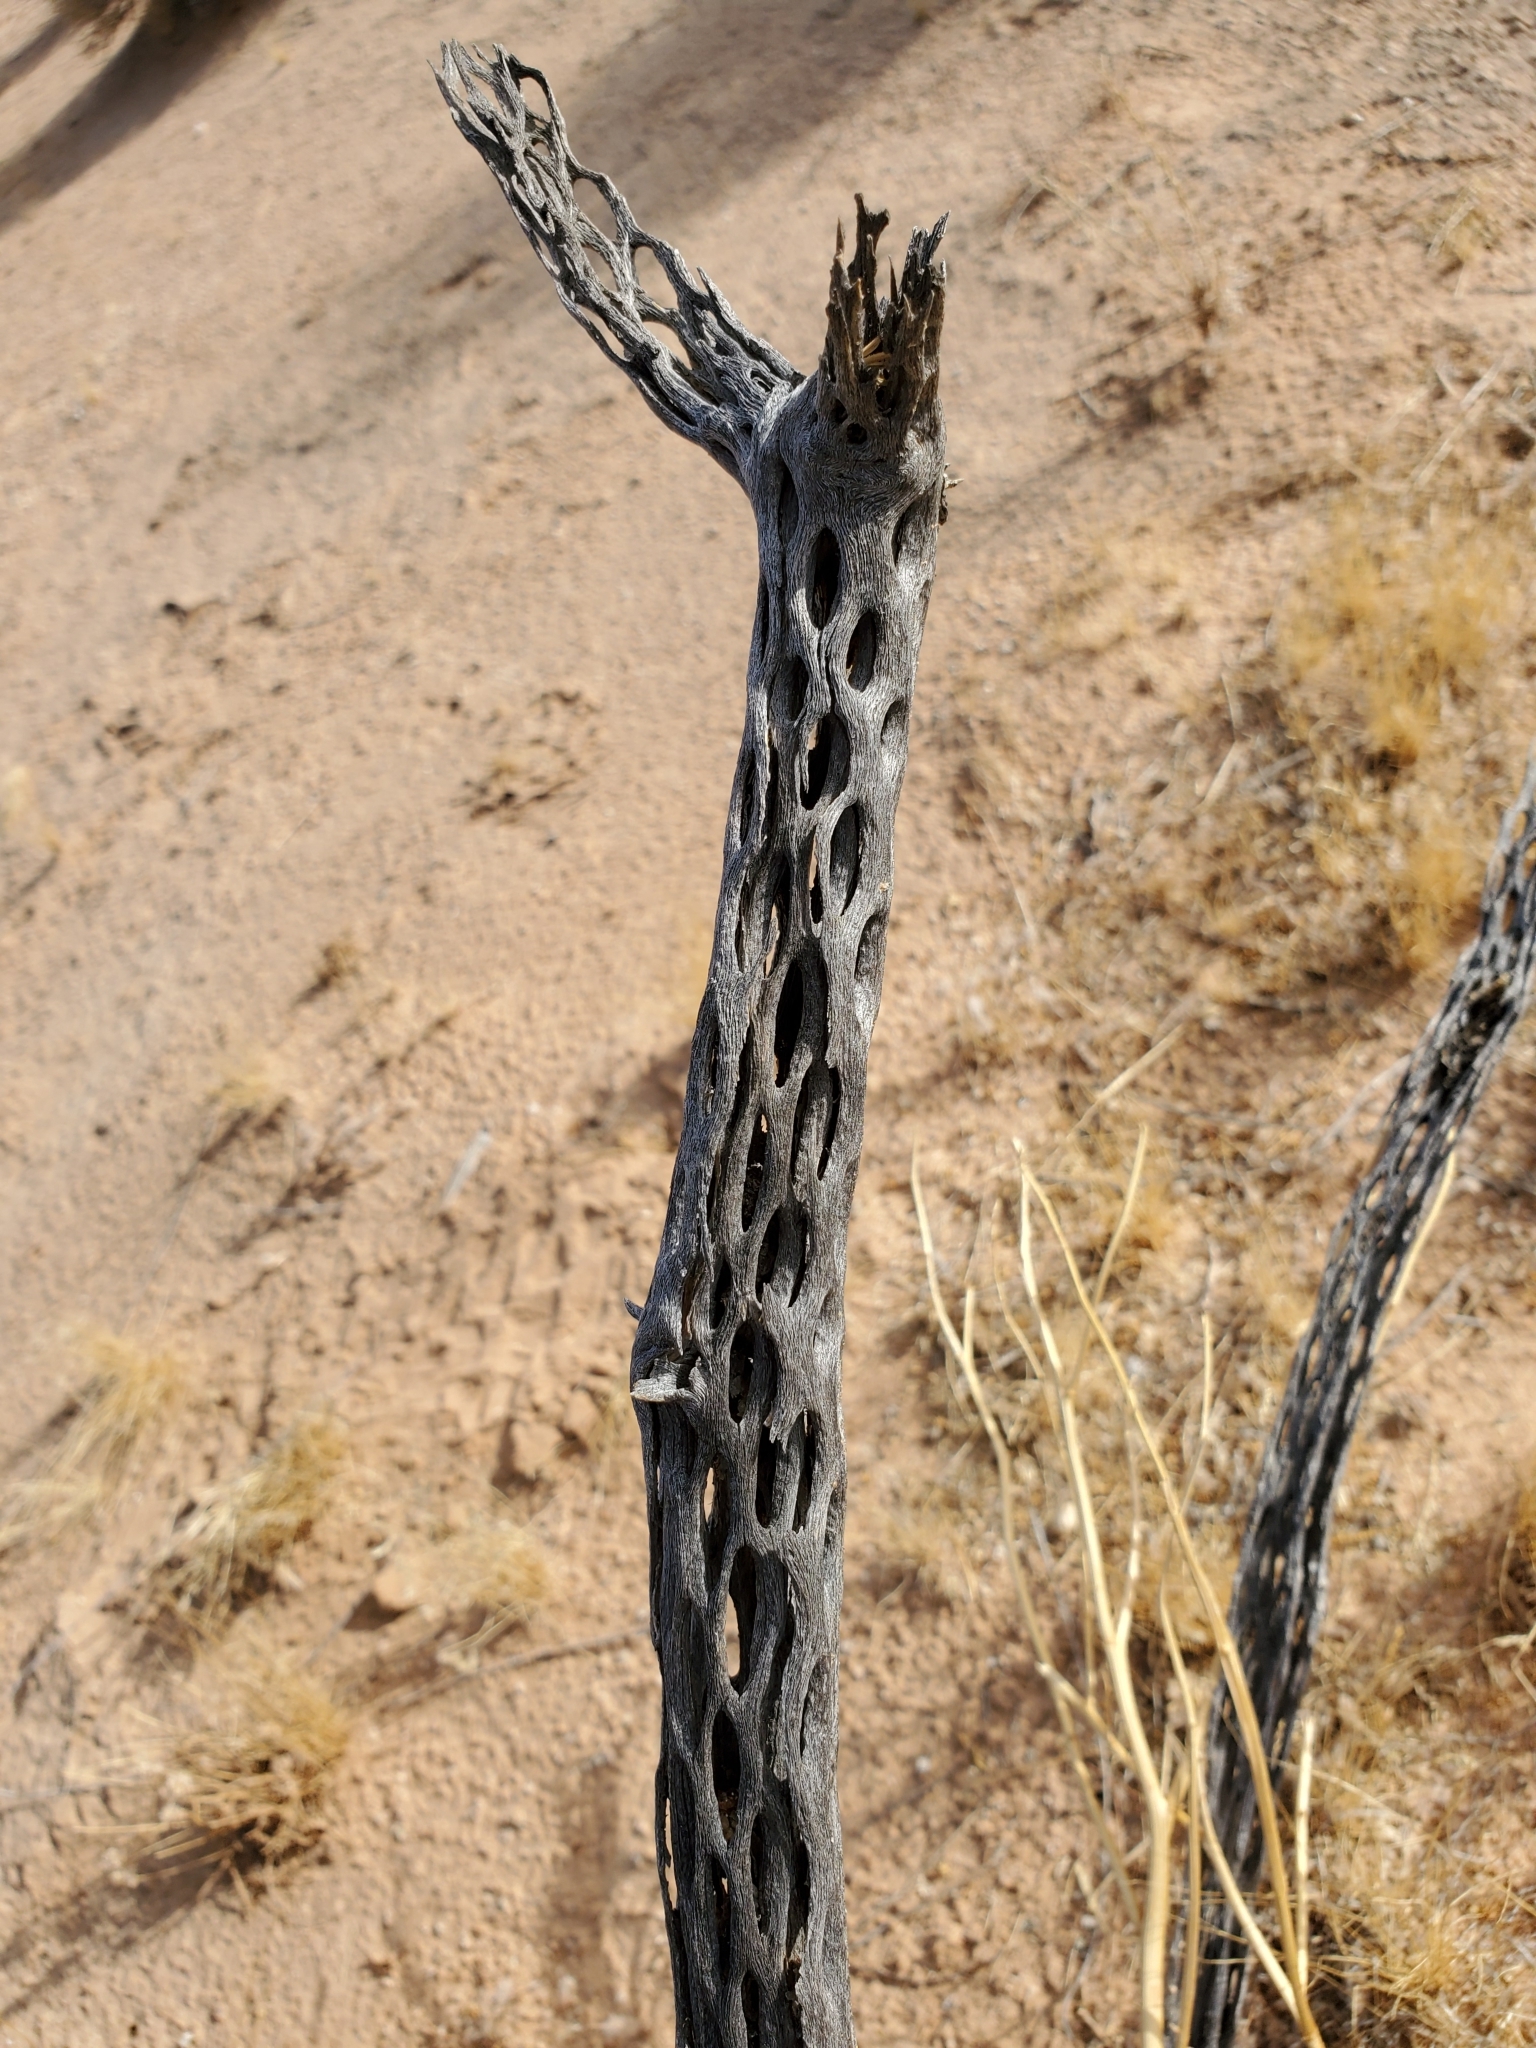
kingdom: Plantae
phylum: Tracheophyta
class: Magnoliopsida
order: Caryophyllales
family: Cactaceae
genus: Cylindropuntia
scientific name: Cylindropuntia acanthocarpa
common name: Buckhorn cholla
